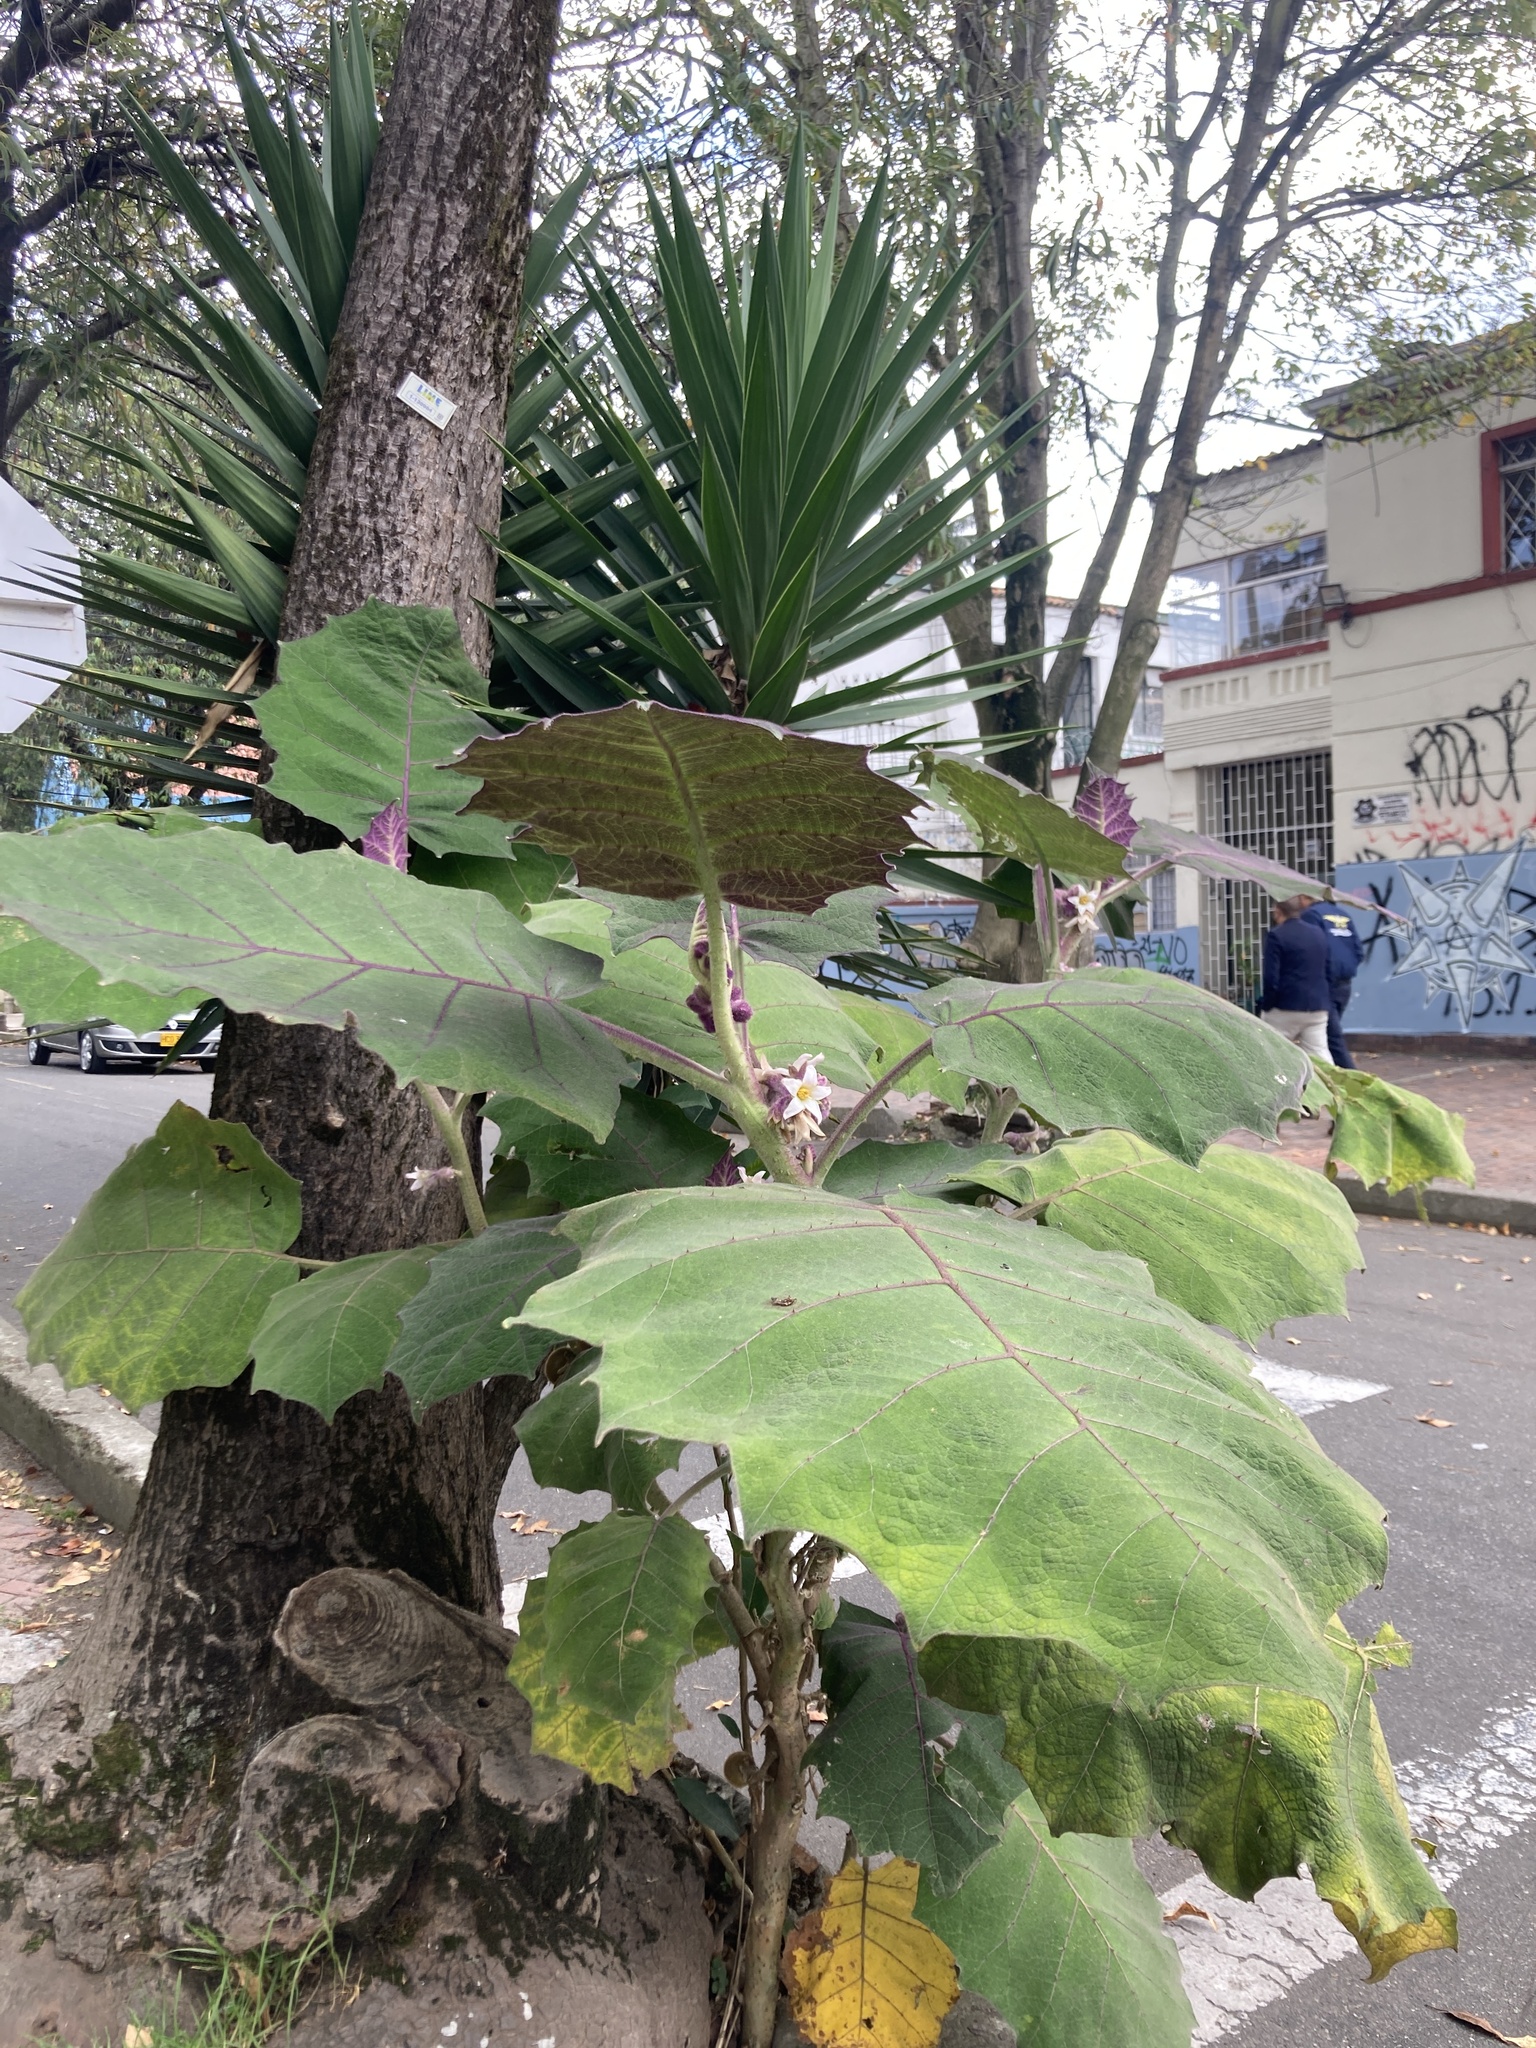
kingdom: Plantae
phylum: Tracheophyta
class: Magnoliopsida
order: Solanales
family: Solanaceae
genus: Solanum
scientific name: Solanum quitoense
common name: Quito-orange
